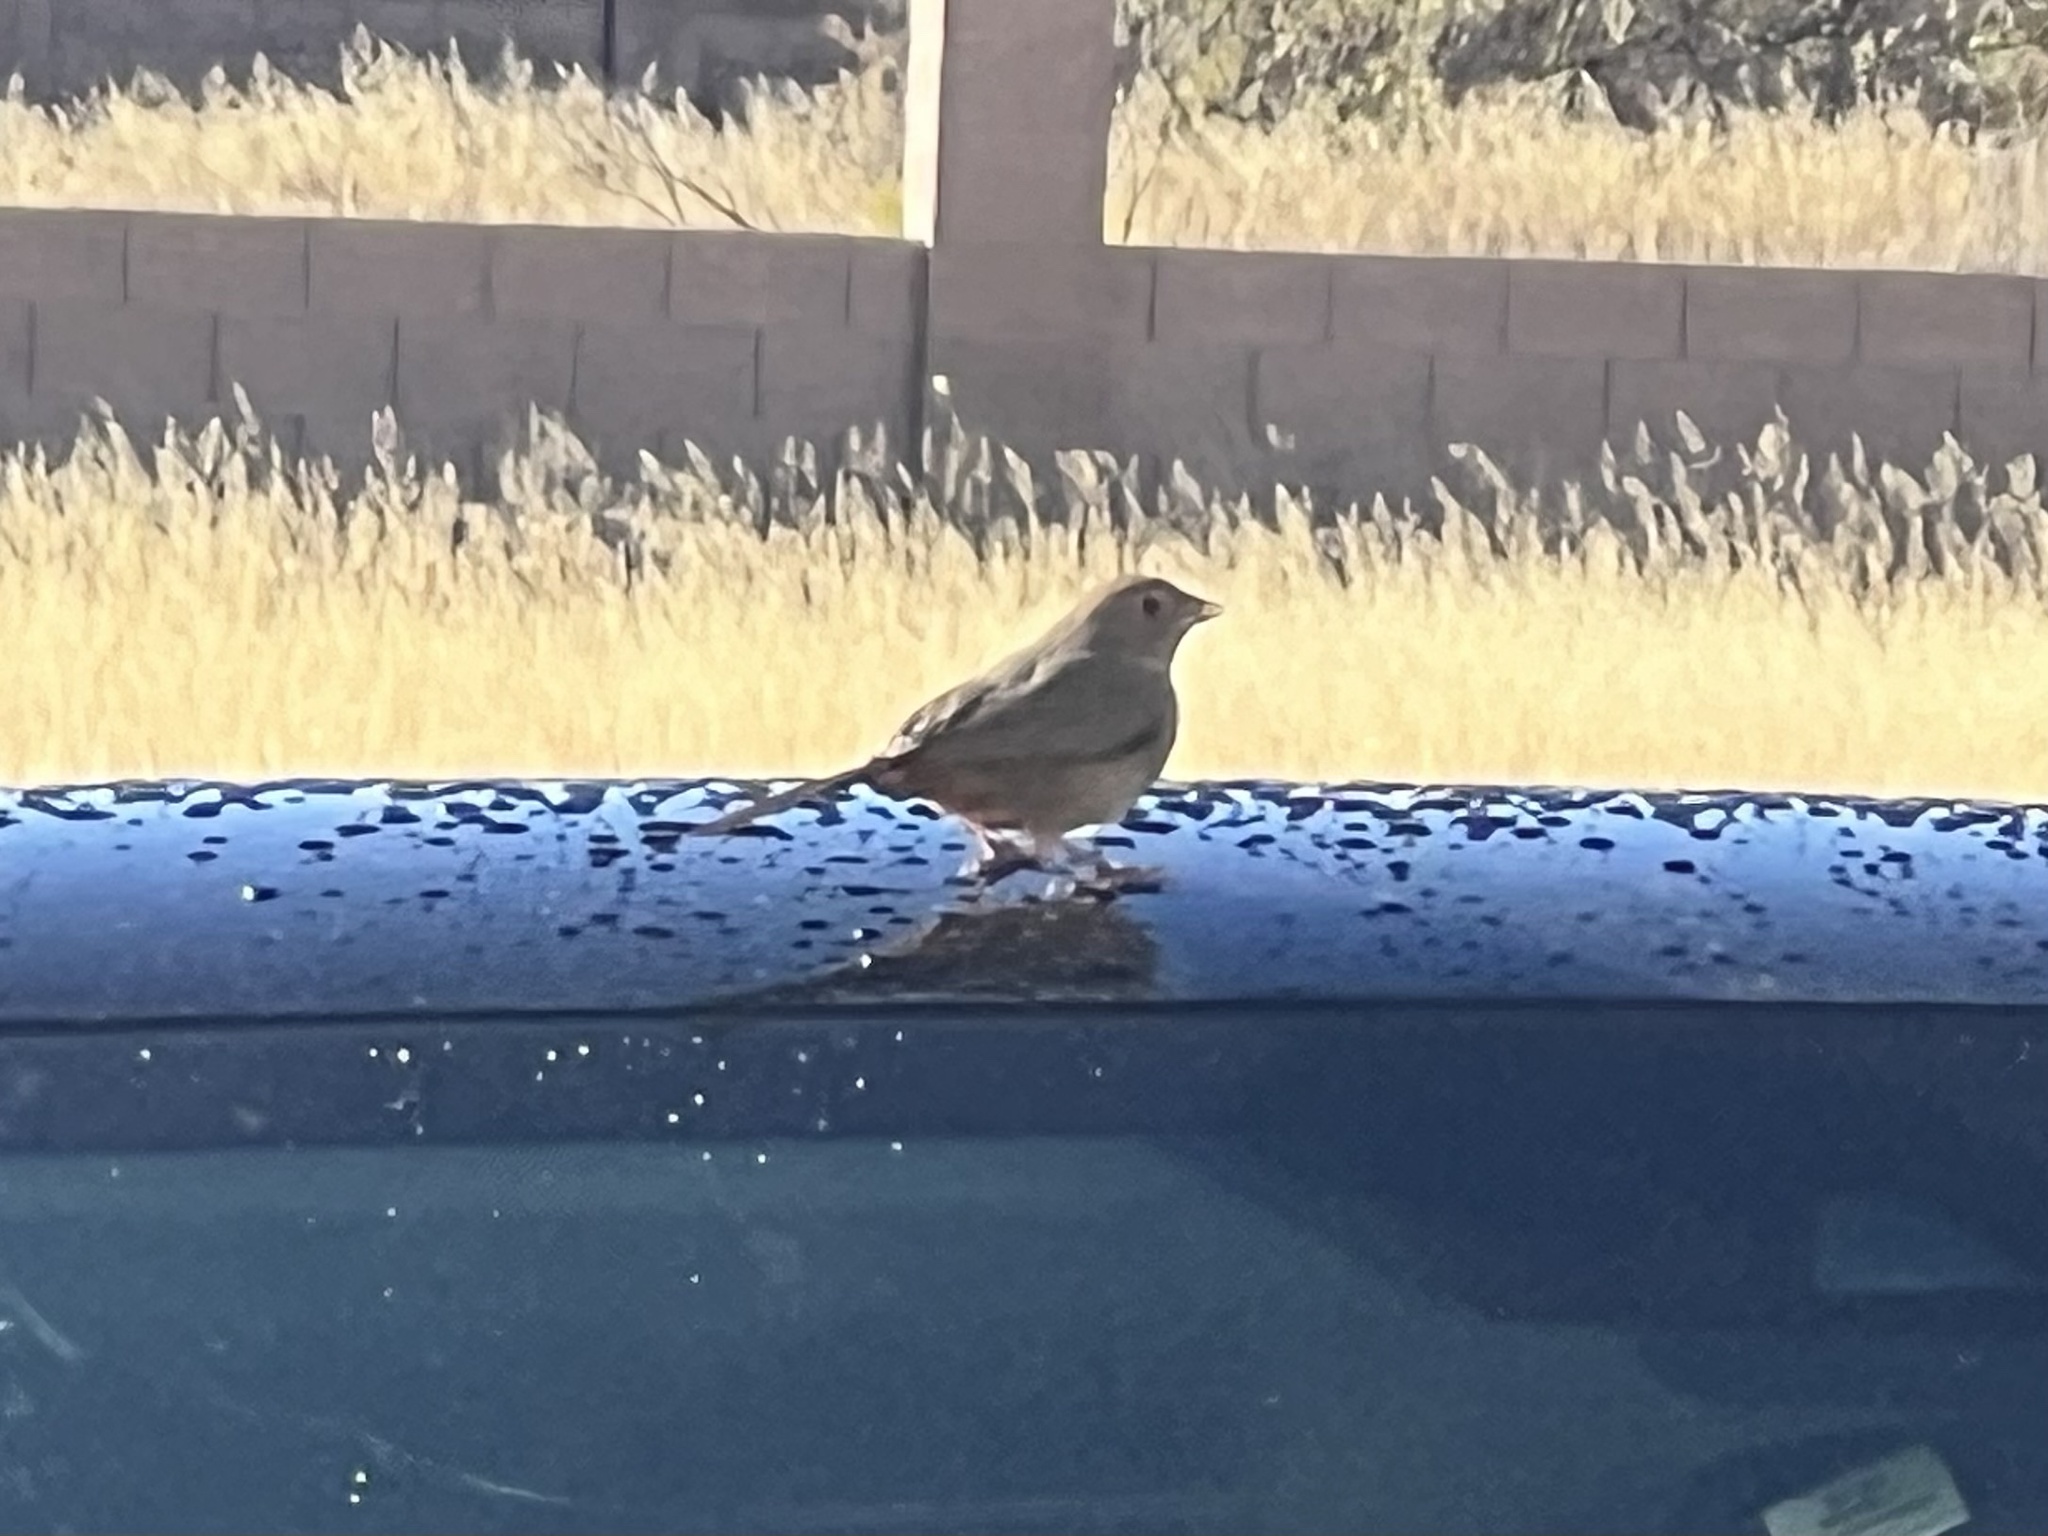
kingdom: Animalia
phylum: Chordata
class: Aves
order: Passeriformes
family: Passerellidae
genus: Melozone
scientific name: Melozone fusca
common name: Canyon towhee
